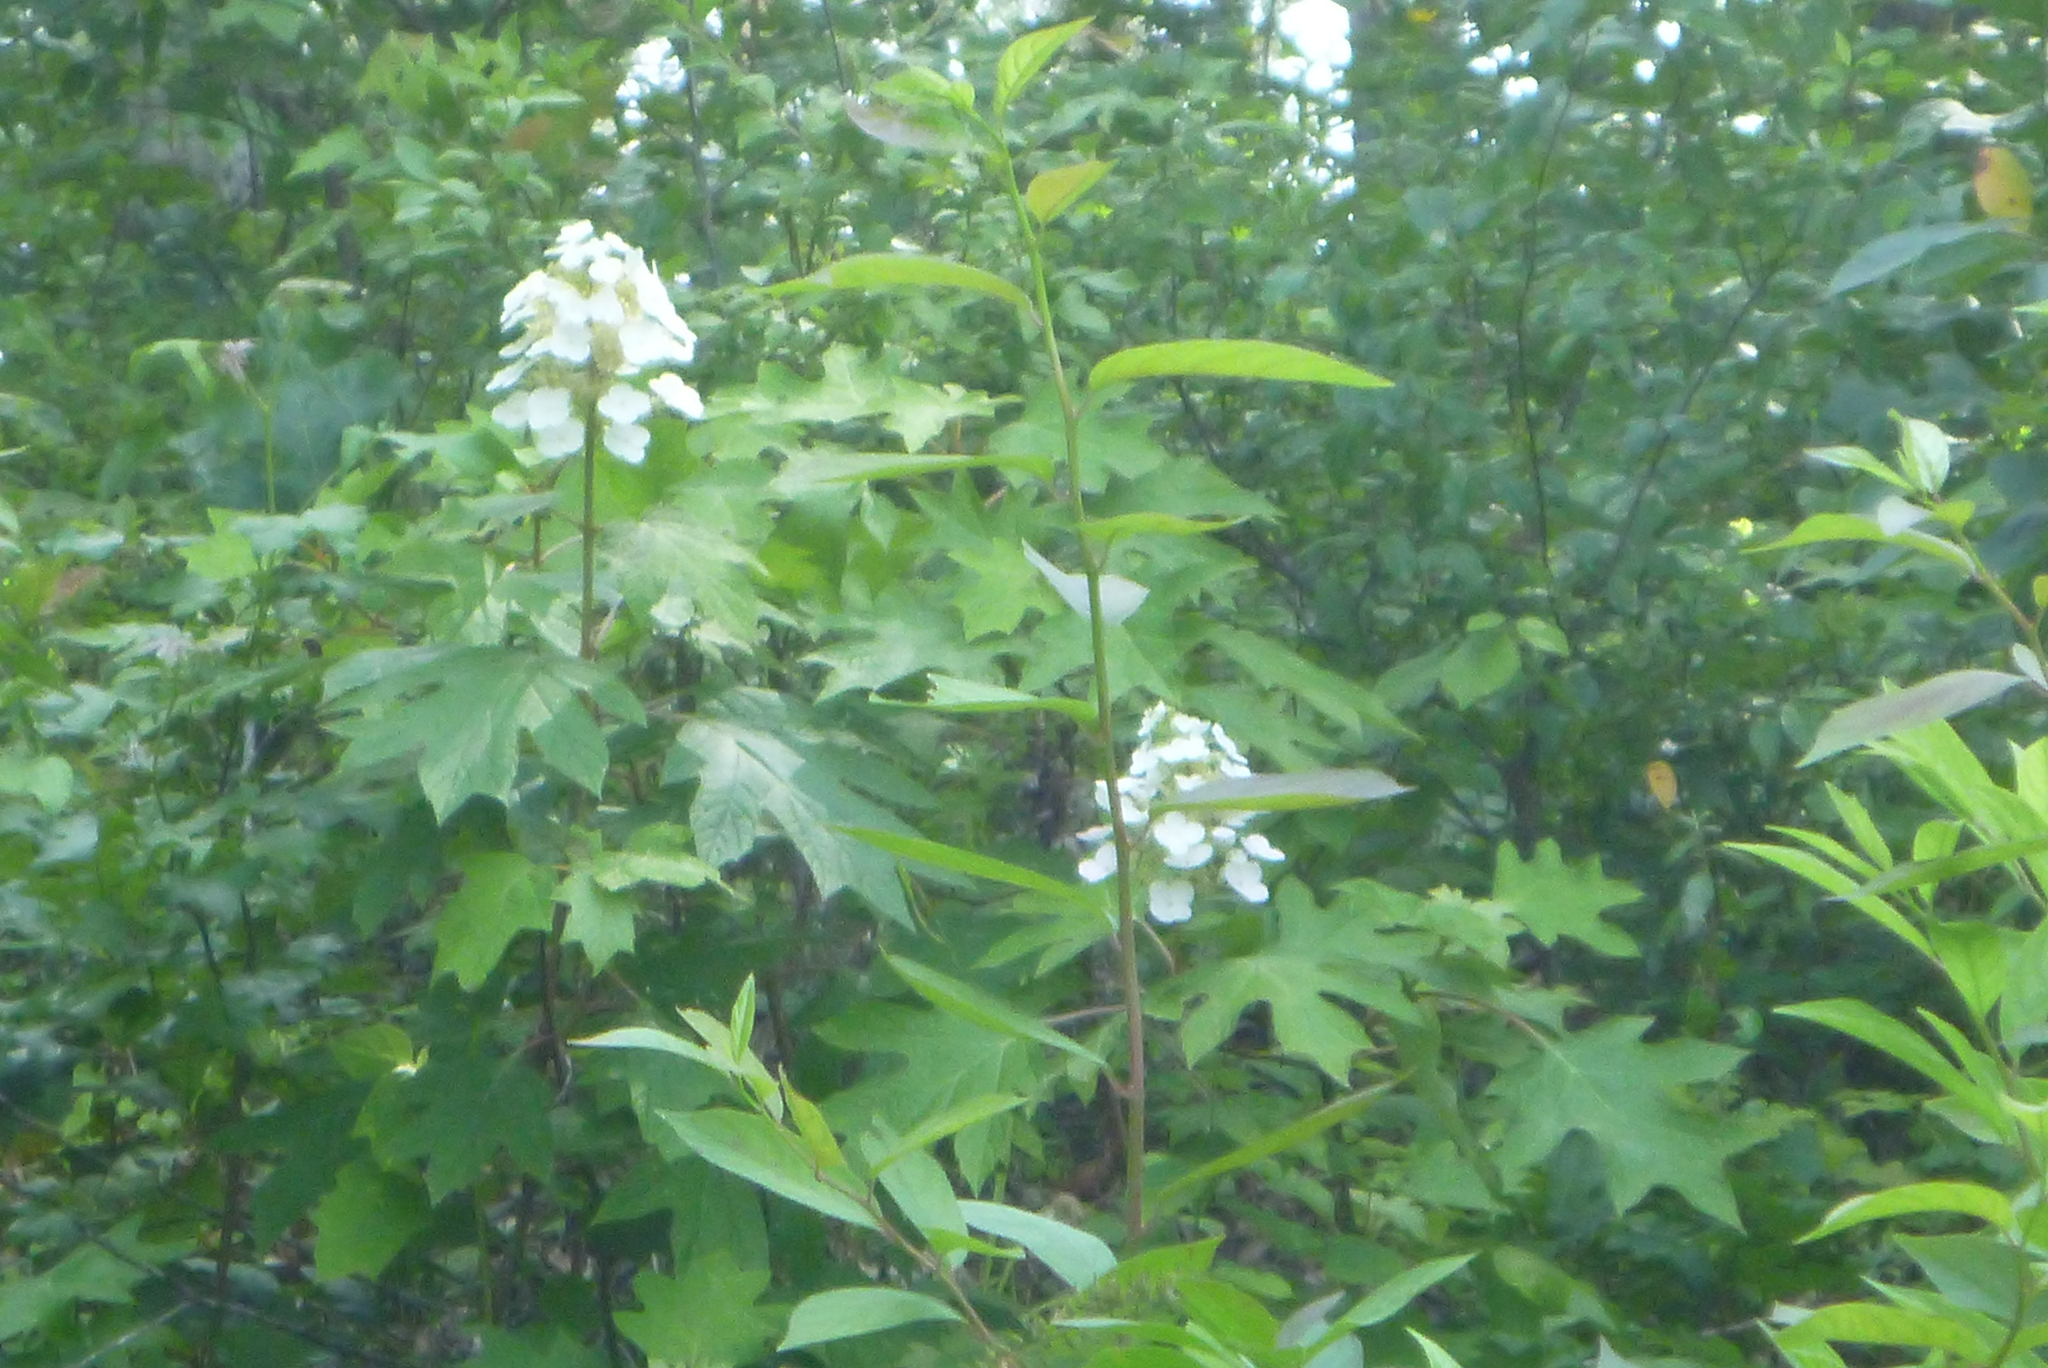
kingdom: Plantae
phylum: Tracheophyta
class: Magnoliopsida
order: Cornales
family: Hydrangeaceae
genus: Hydrangea
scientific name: Hydrangea quercifolia
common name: Oak-leaf hydrangea
